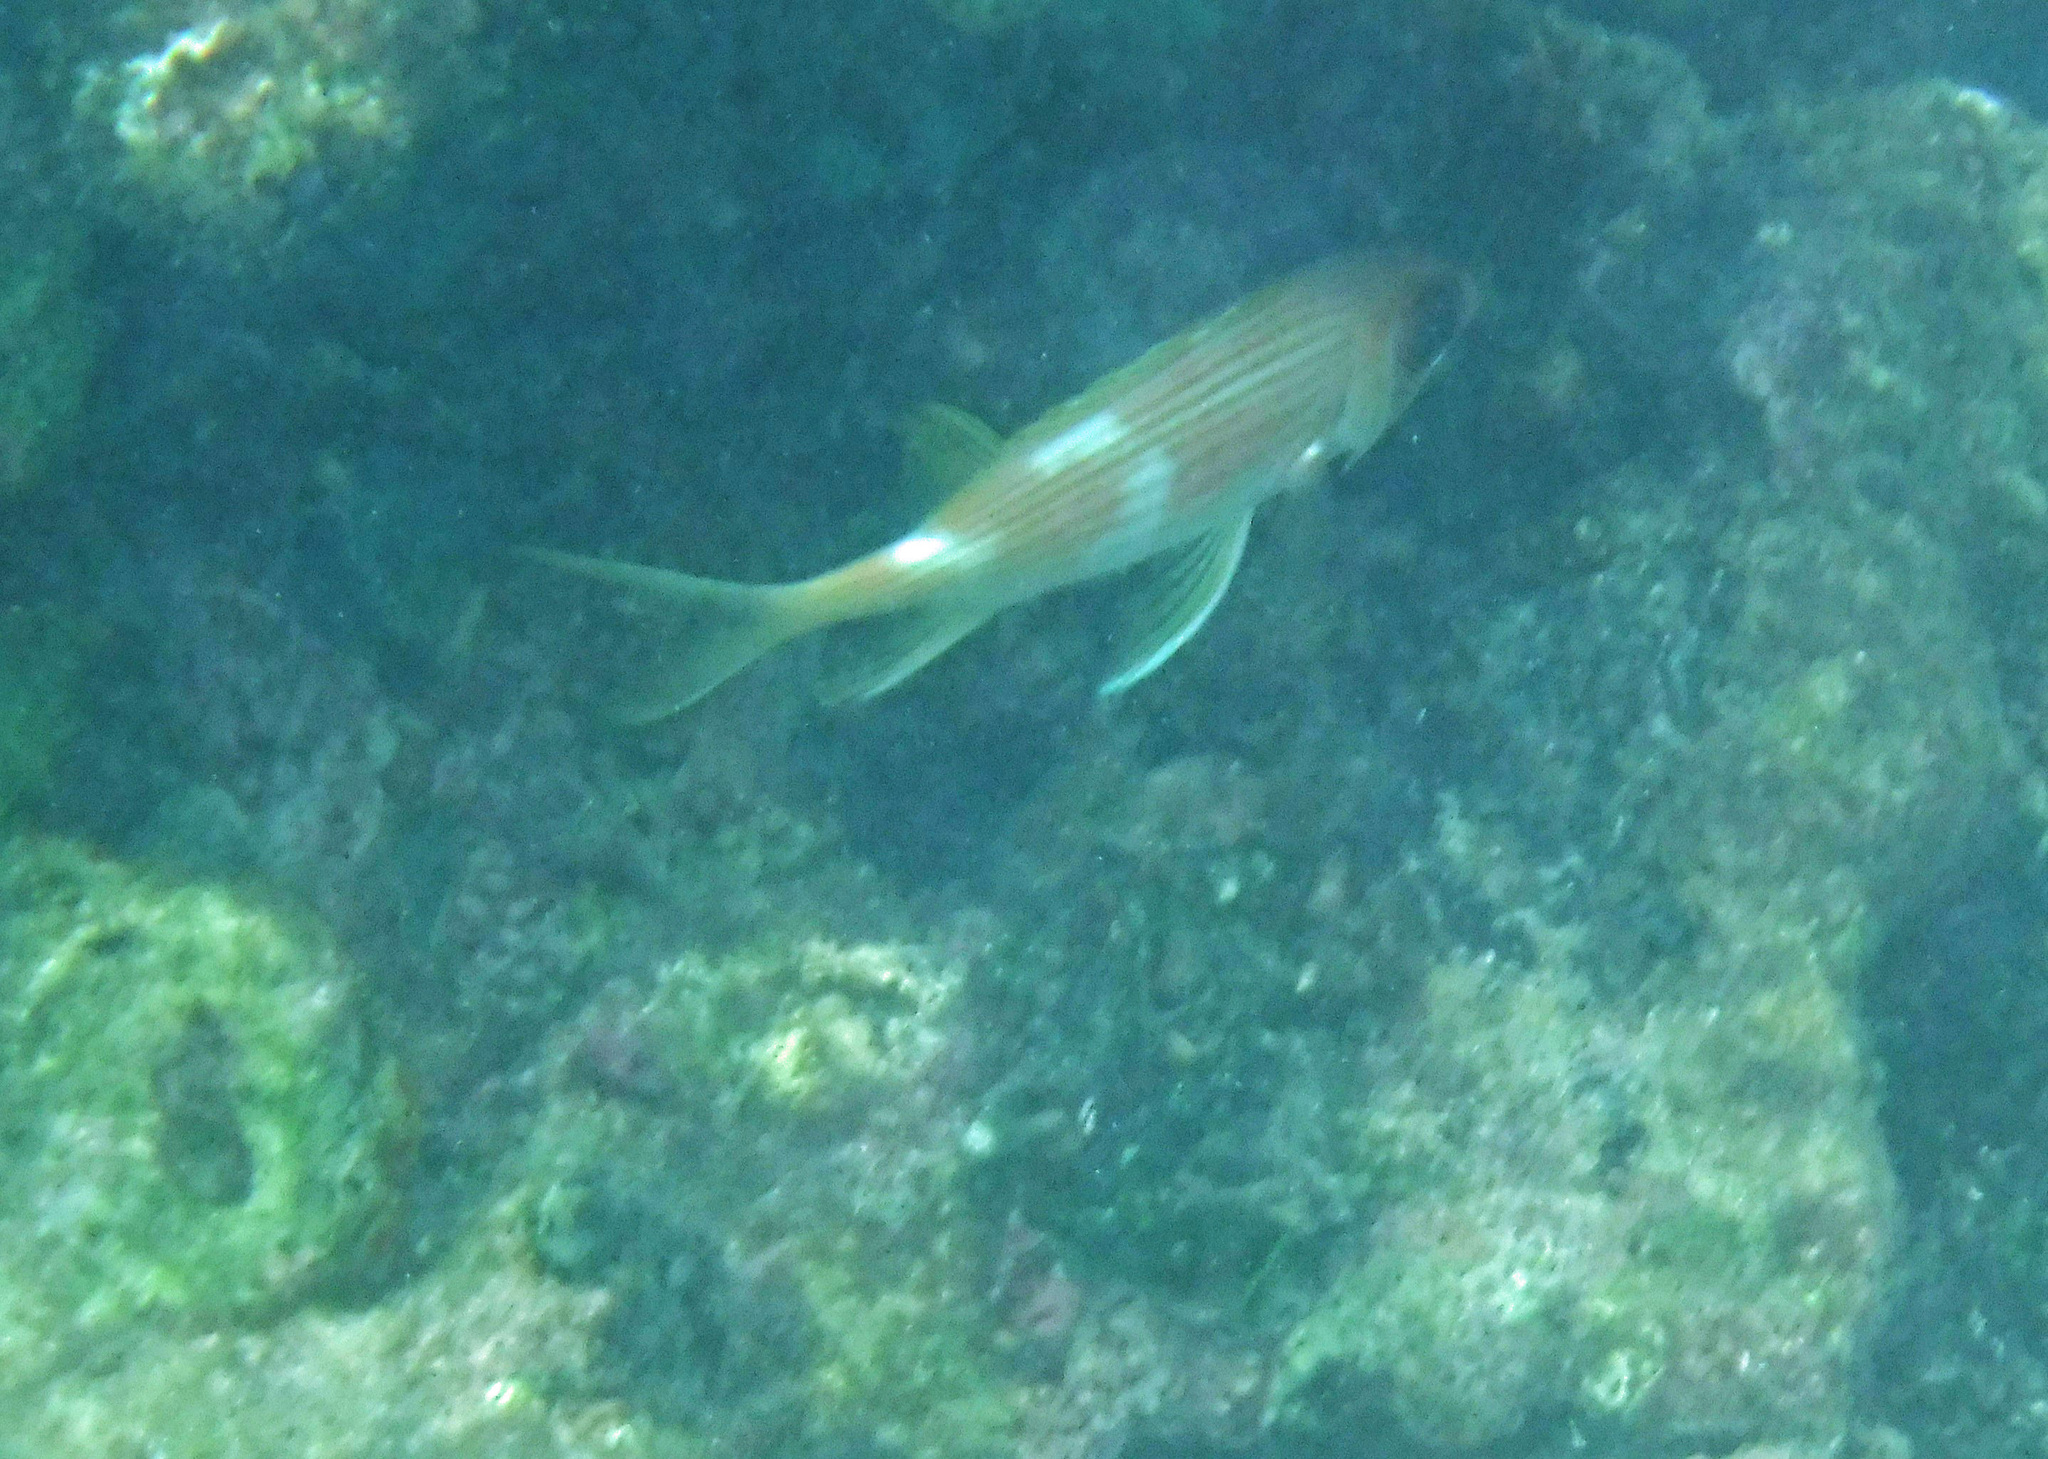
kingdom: Animalia
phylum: Chordata
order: Beryciformes
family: Holocentridae
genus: Holocentrus
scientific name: Holocentrus rufus
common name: Longspine squirrelfish
